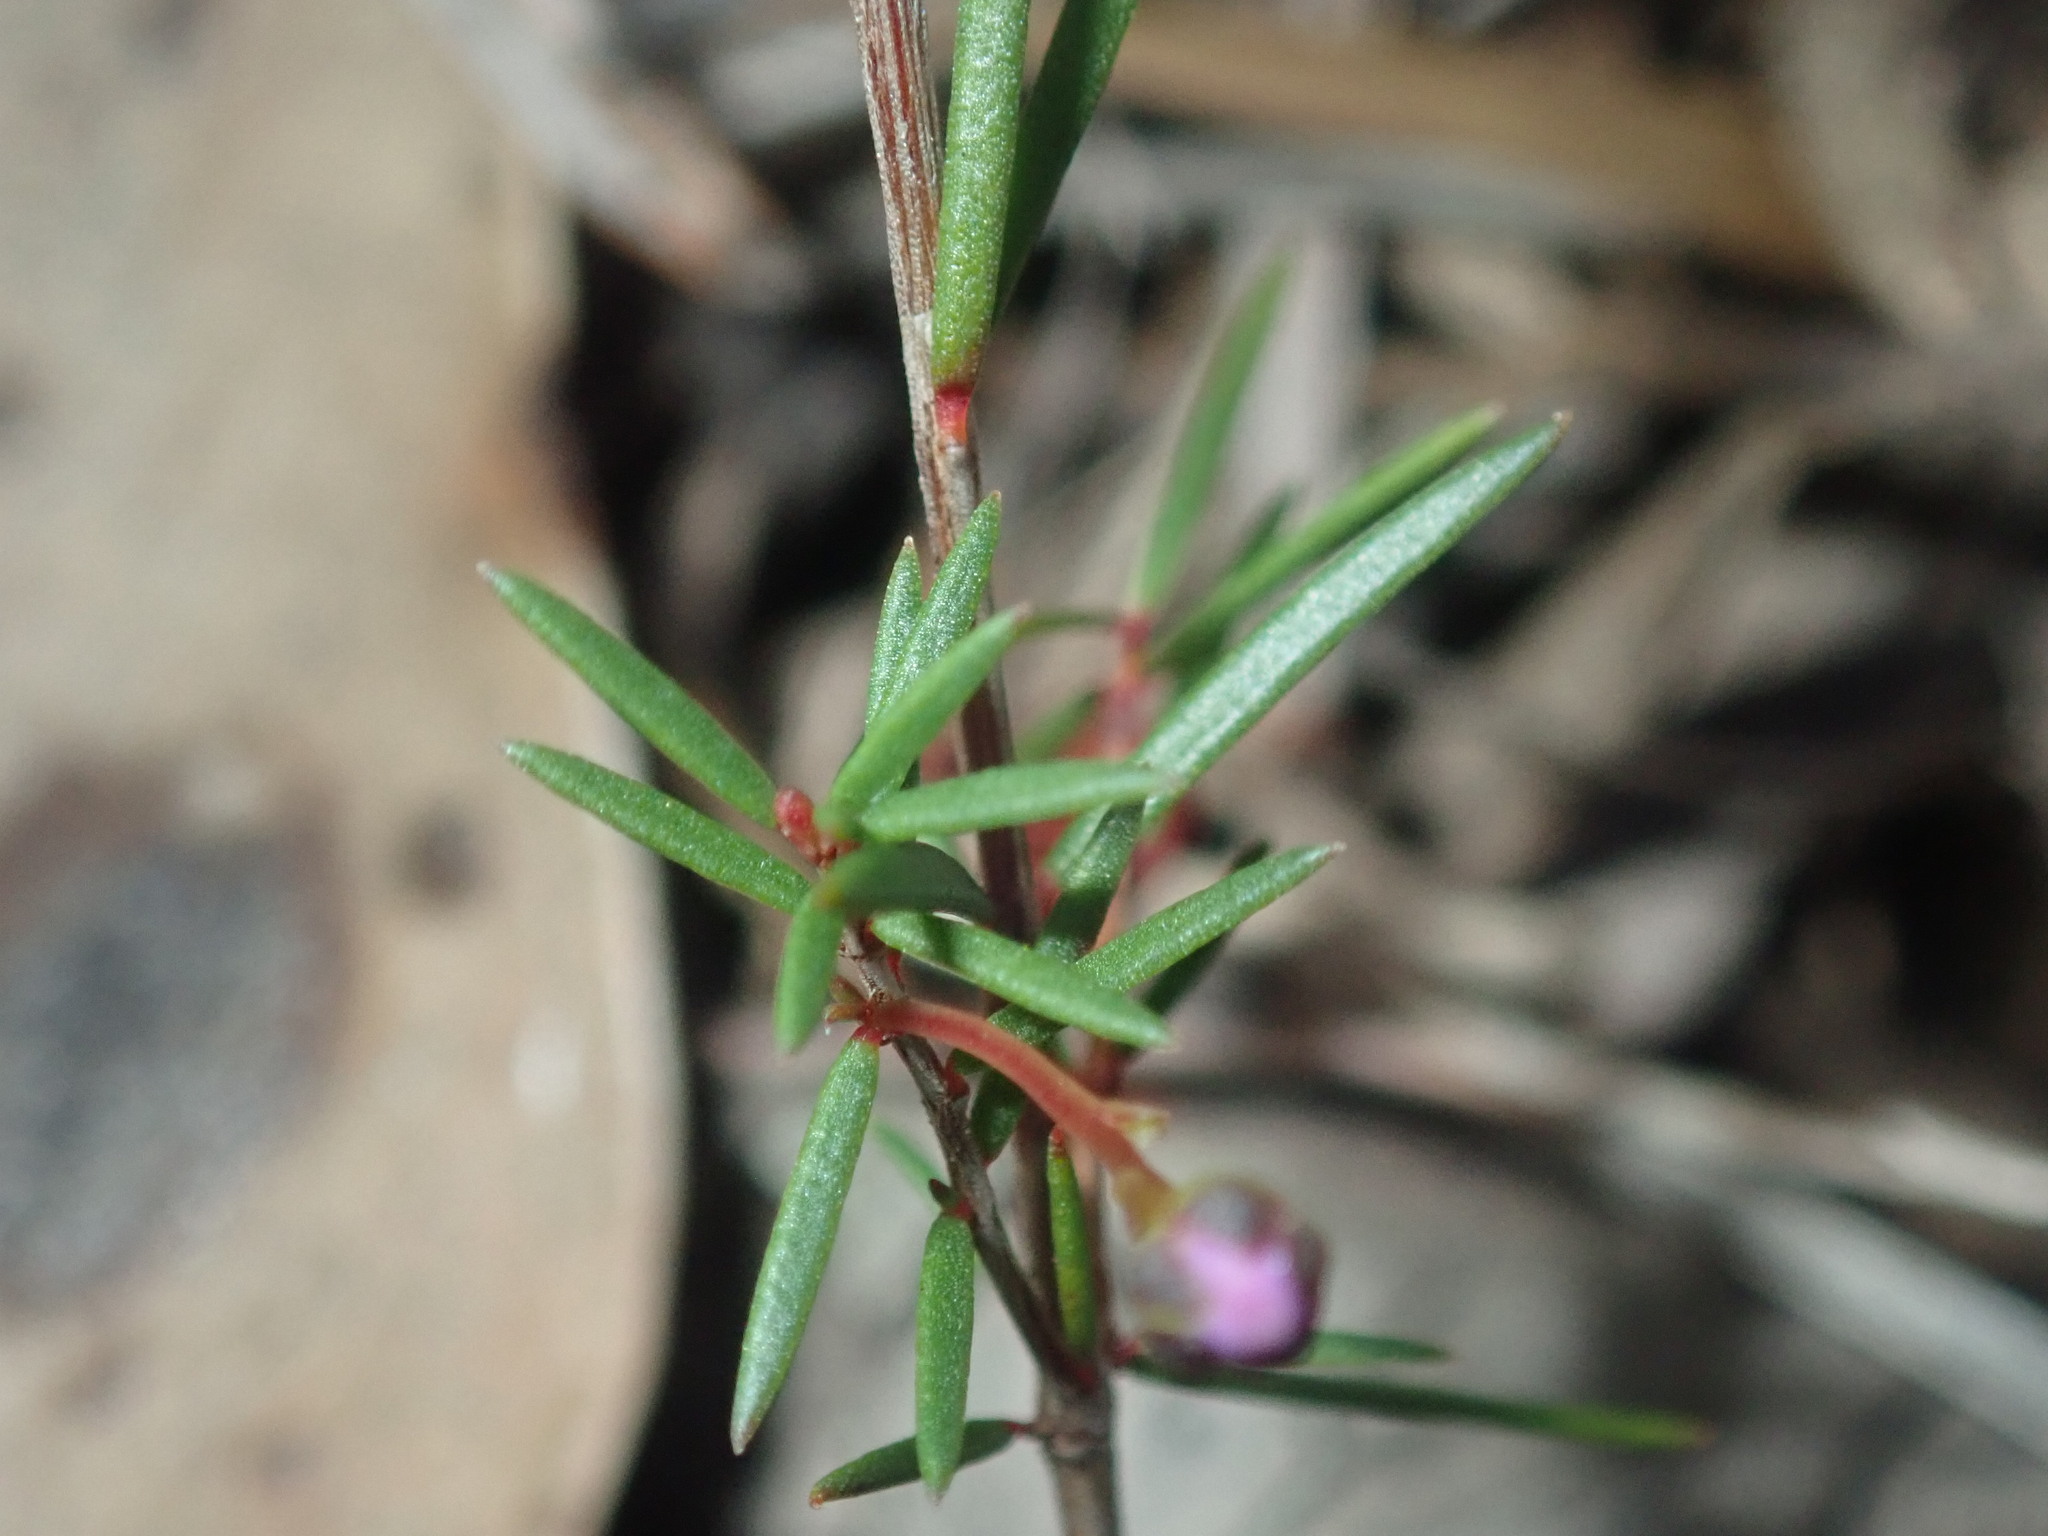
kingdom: Plantae
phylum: Tracheophyta
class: Magnoliopsida
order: Myrtales
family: Myrtaceae
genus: Euryomyrtus
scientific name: Euryomyrtus ramosissima
